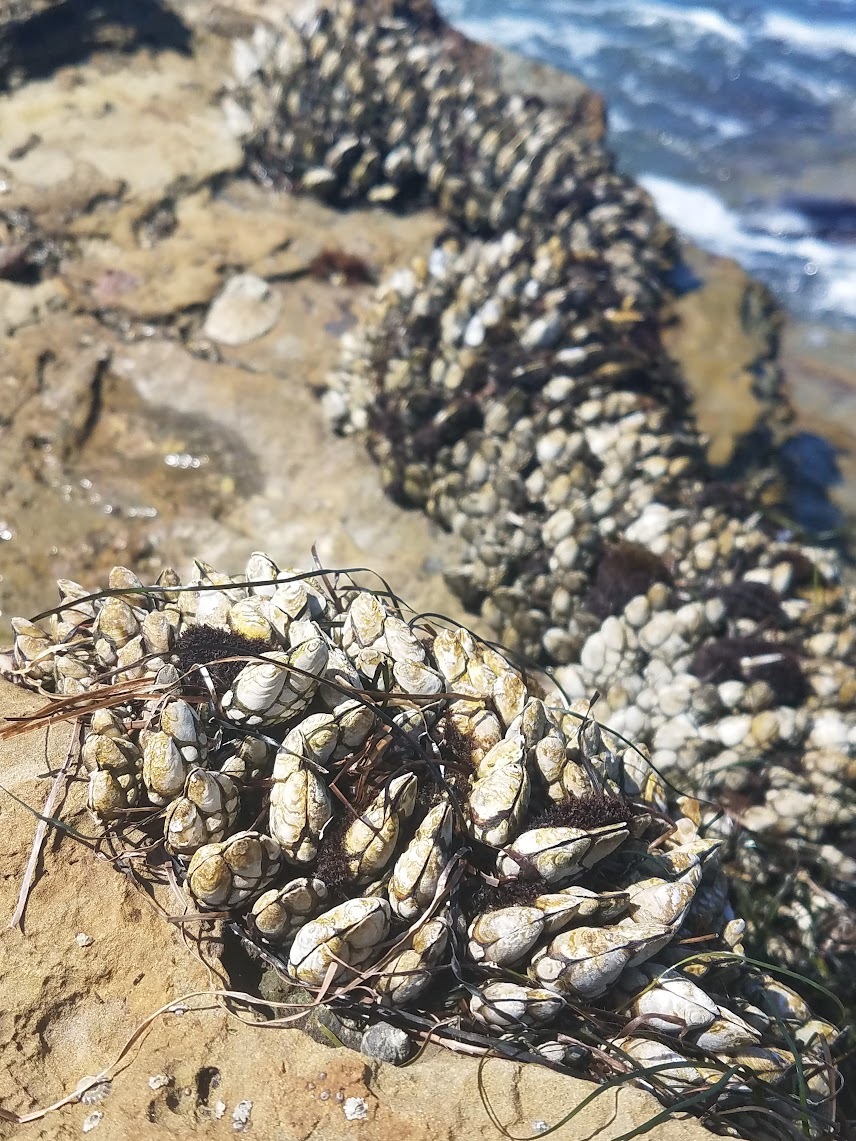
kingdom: Animalia
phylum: Arthropoda
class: Maxillopoda
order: Pedunculata
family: Pollicipedidae
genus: Pollicipes
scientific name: Pollicipes polymerus
